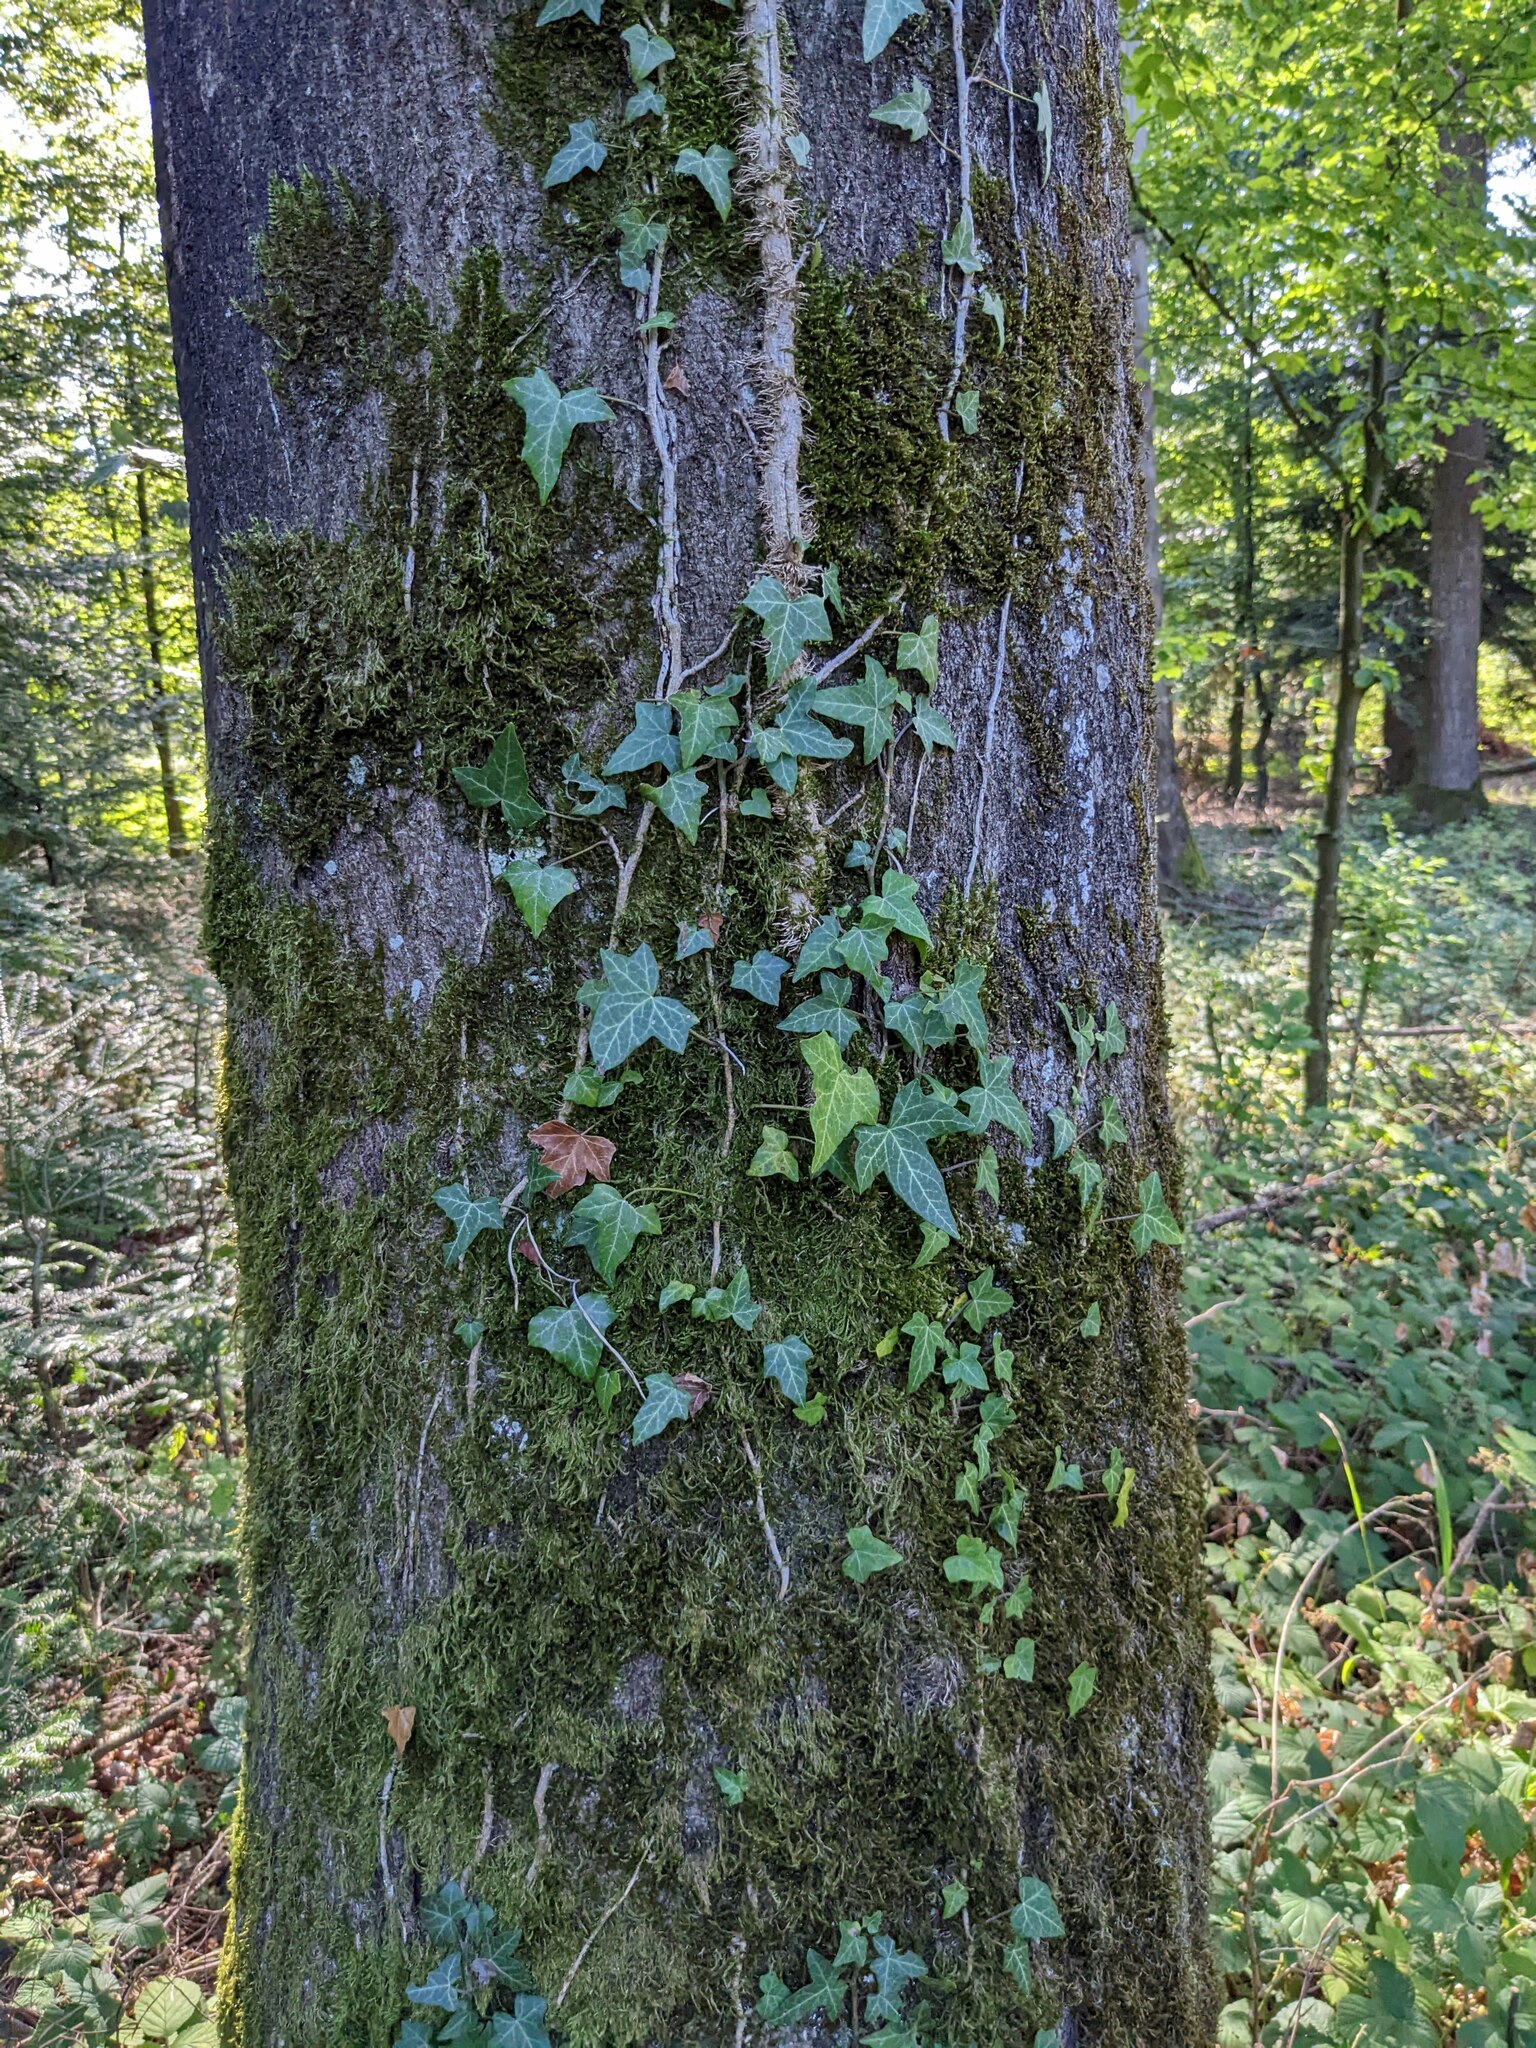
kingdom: Plantae
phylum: Tracheophyta
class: Magnoliopsida
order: Apiales
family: Araliaceae
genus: Hedera
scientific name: Hedera helix
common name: Ivy
